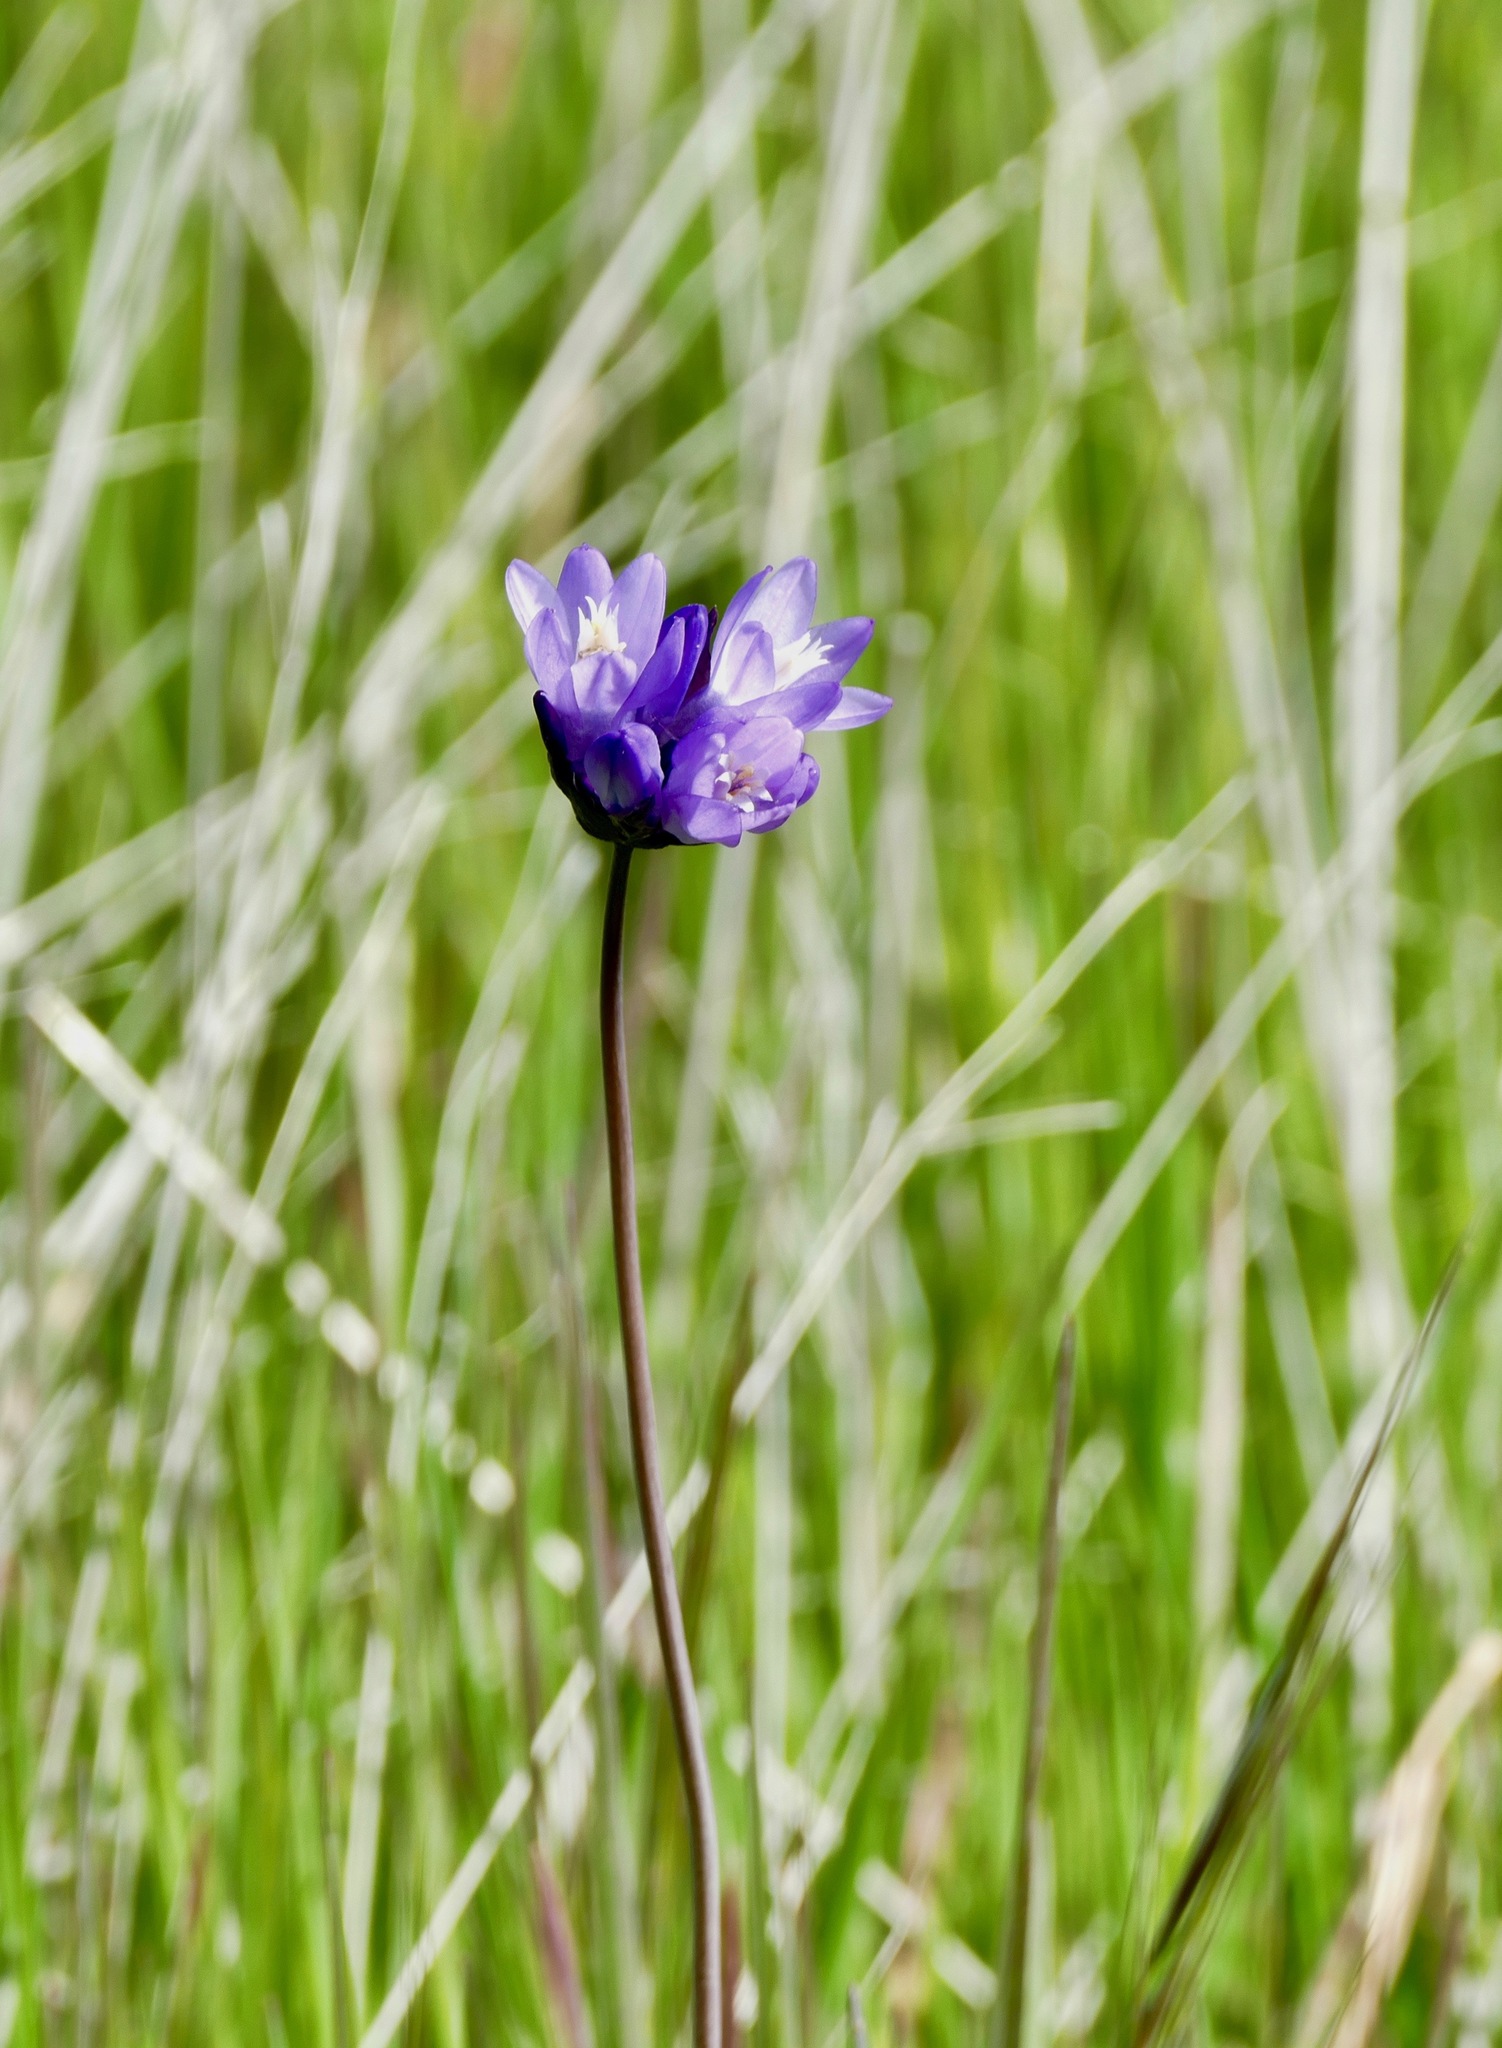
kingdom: Plantae
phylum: Tracheophyta
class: Liliopsida
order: Asparagales
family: Asparagaceae
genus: Dipterostemon
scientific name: Dipterostemon capitatus
